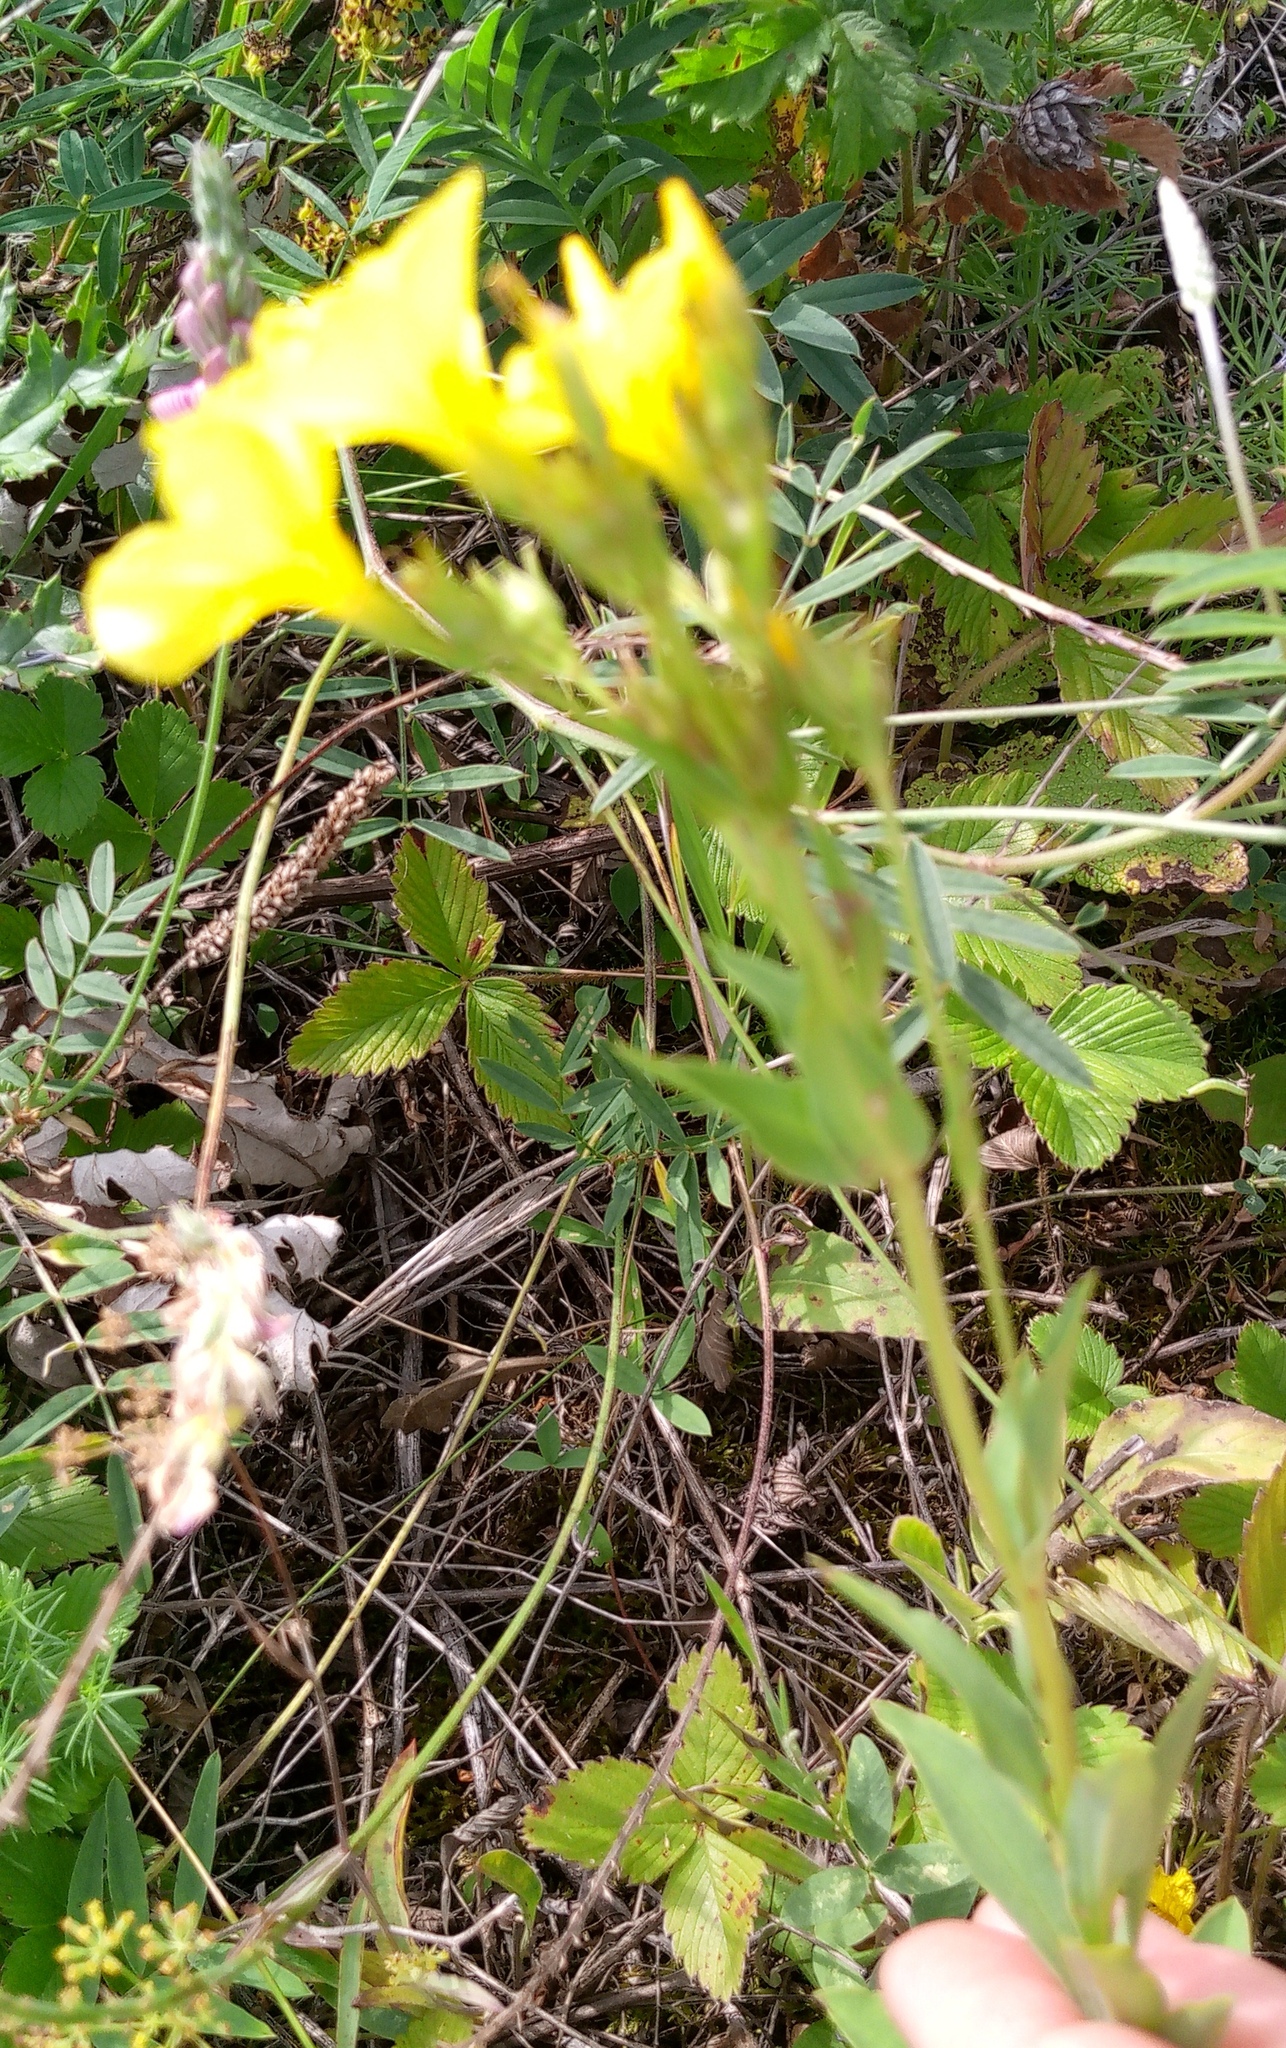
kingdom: Plantae
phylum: Tracheophyta
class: Magnoliopsida
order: Malpighiales
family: Linaceae
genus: Linum
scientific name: Linum flavum
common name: Yellow flax
